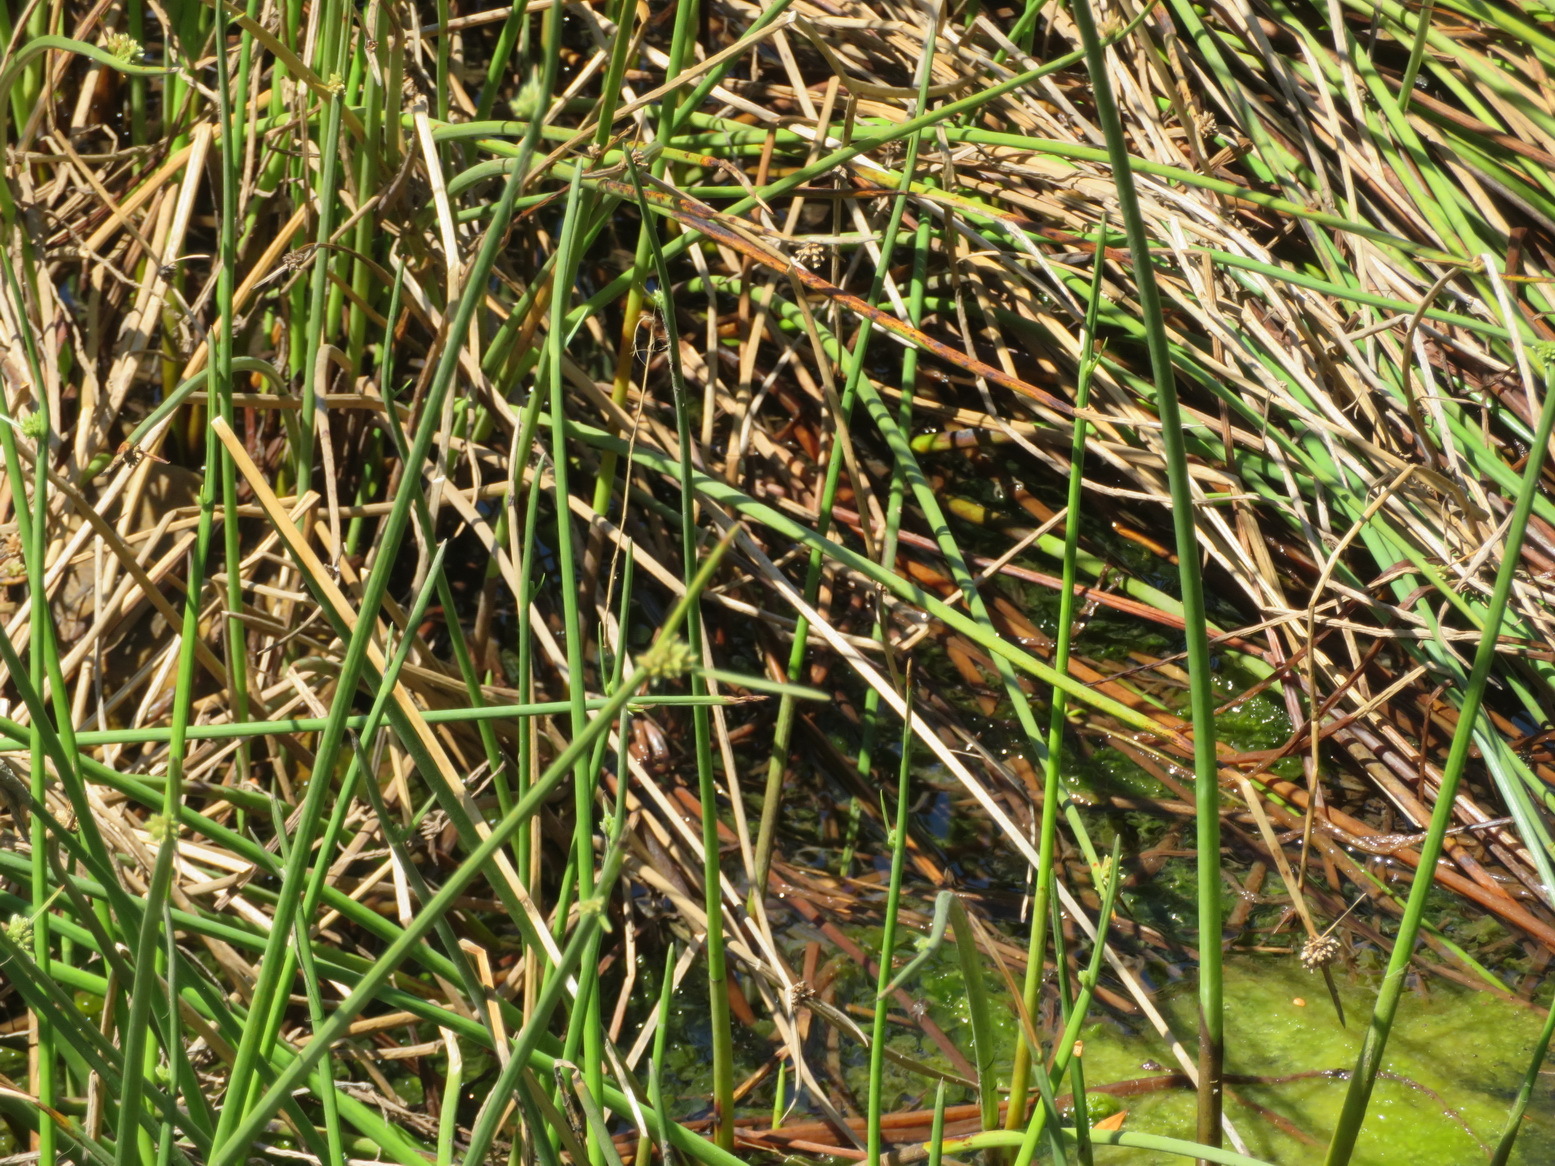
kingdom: Plantae
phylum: Tracheophyta
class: Liliopsida
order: Poales
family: Cyperaceae
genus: Cyperus
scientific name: Cyperus laevigatus
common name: Smooth flat sedge
